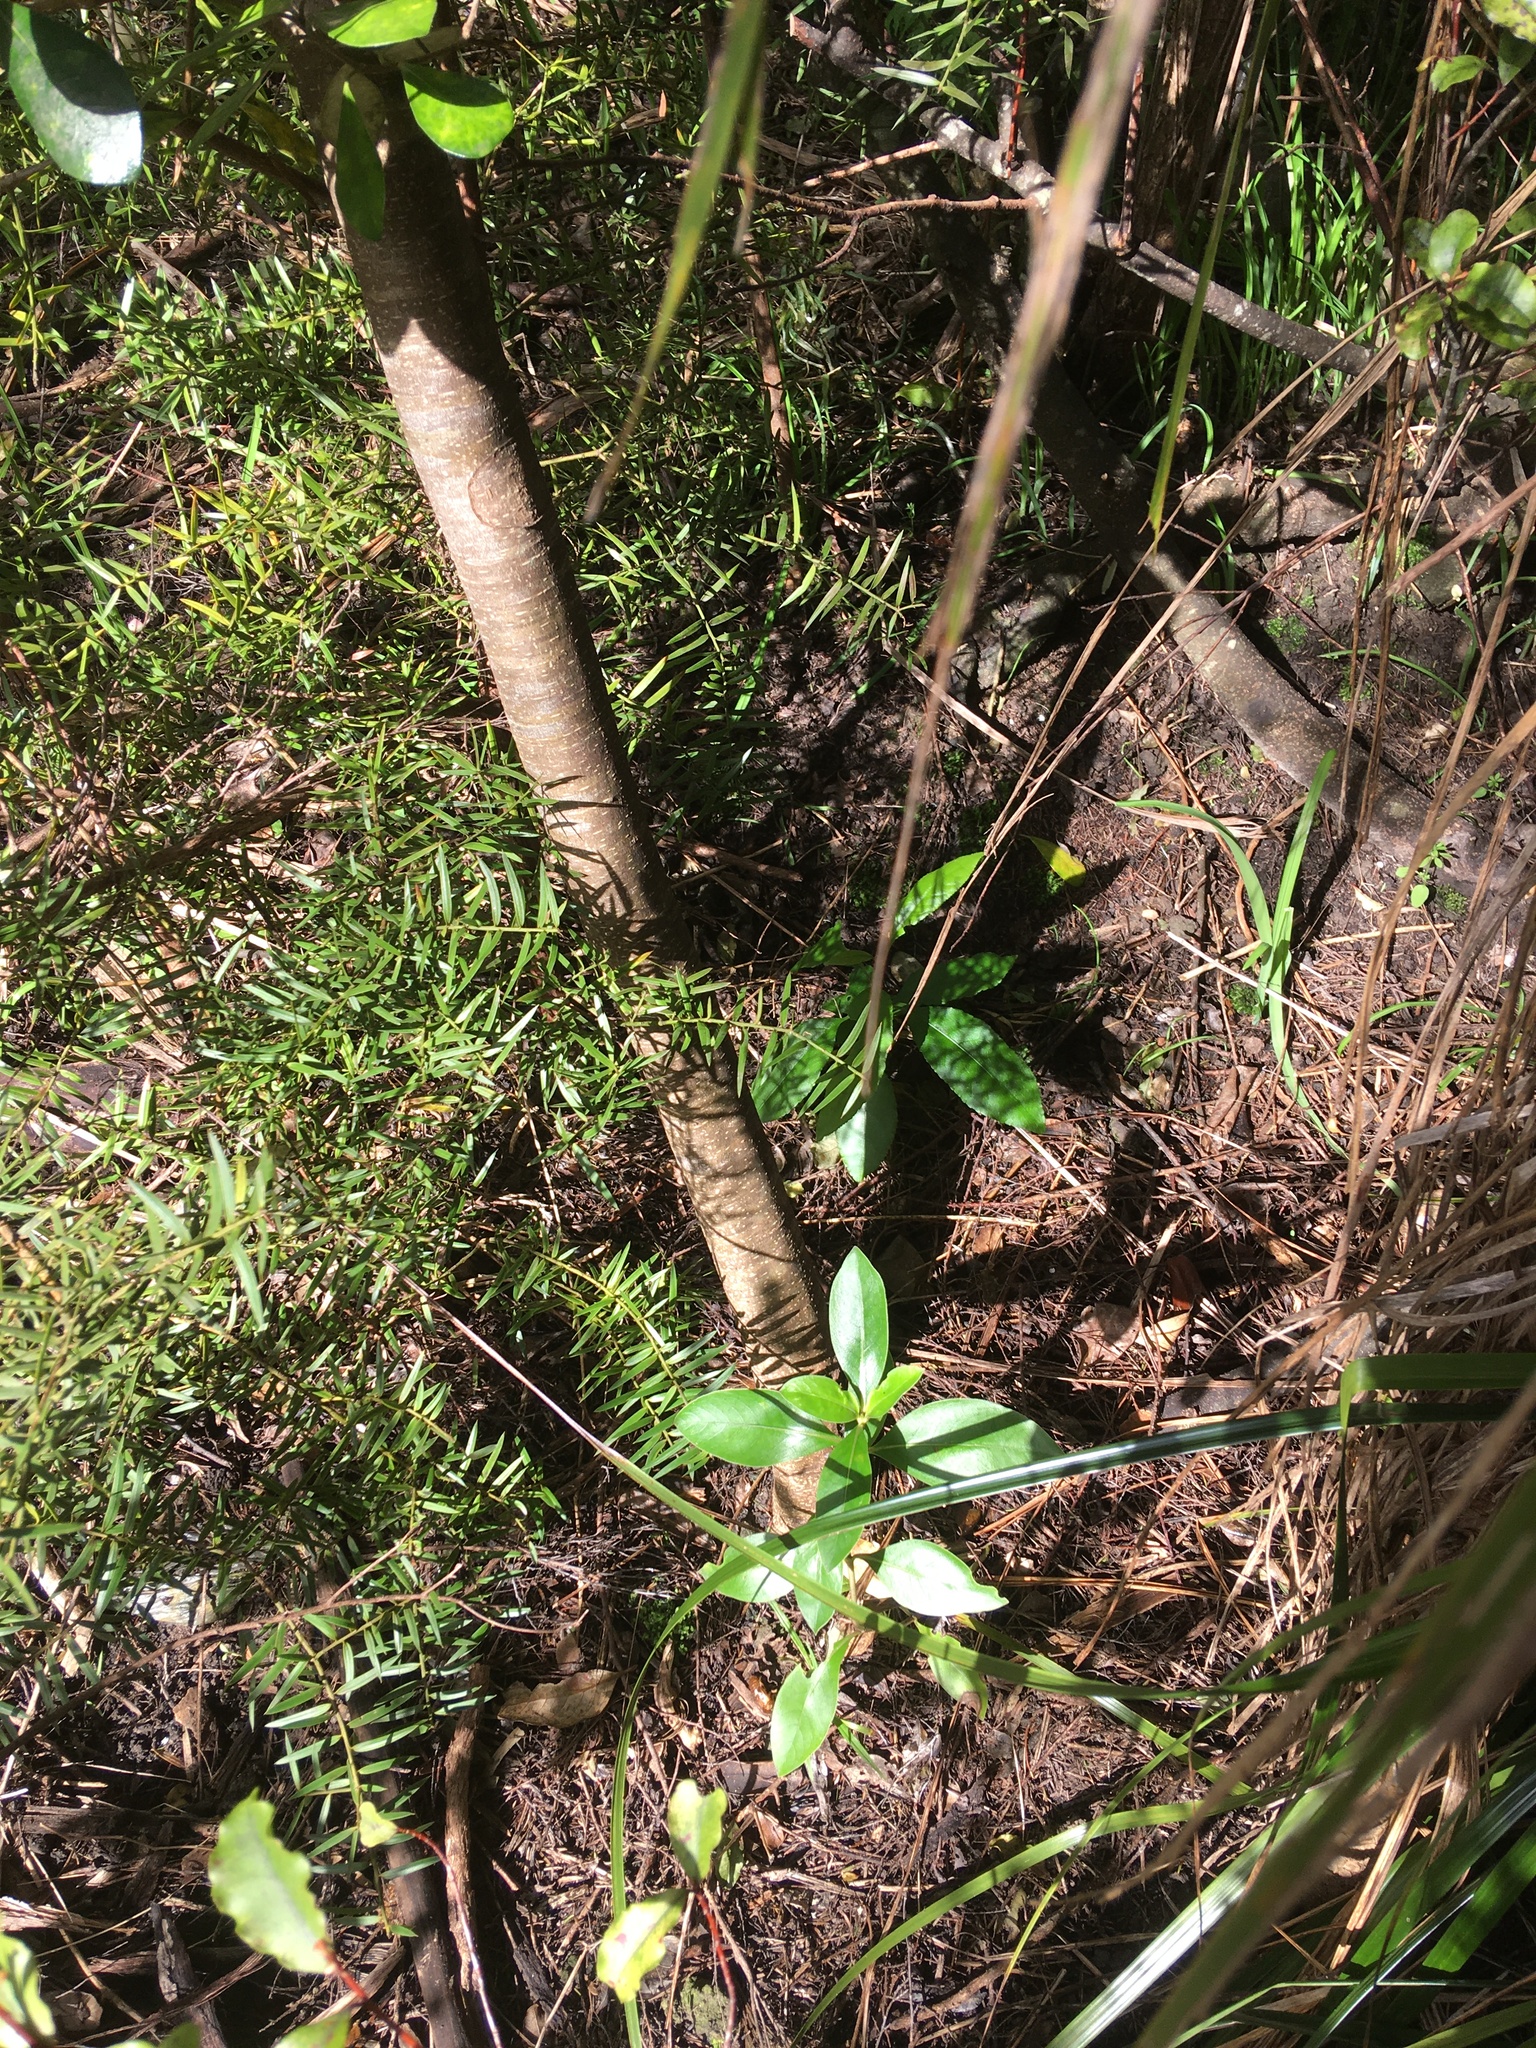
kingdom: Plantae
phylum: Tracheophyta
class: Magnoliopsida
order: Malpighiales
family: Violaceae
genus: Melicytus
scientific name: Melicytus ramiflorus
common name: Mahoe
